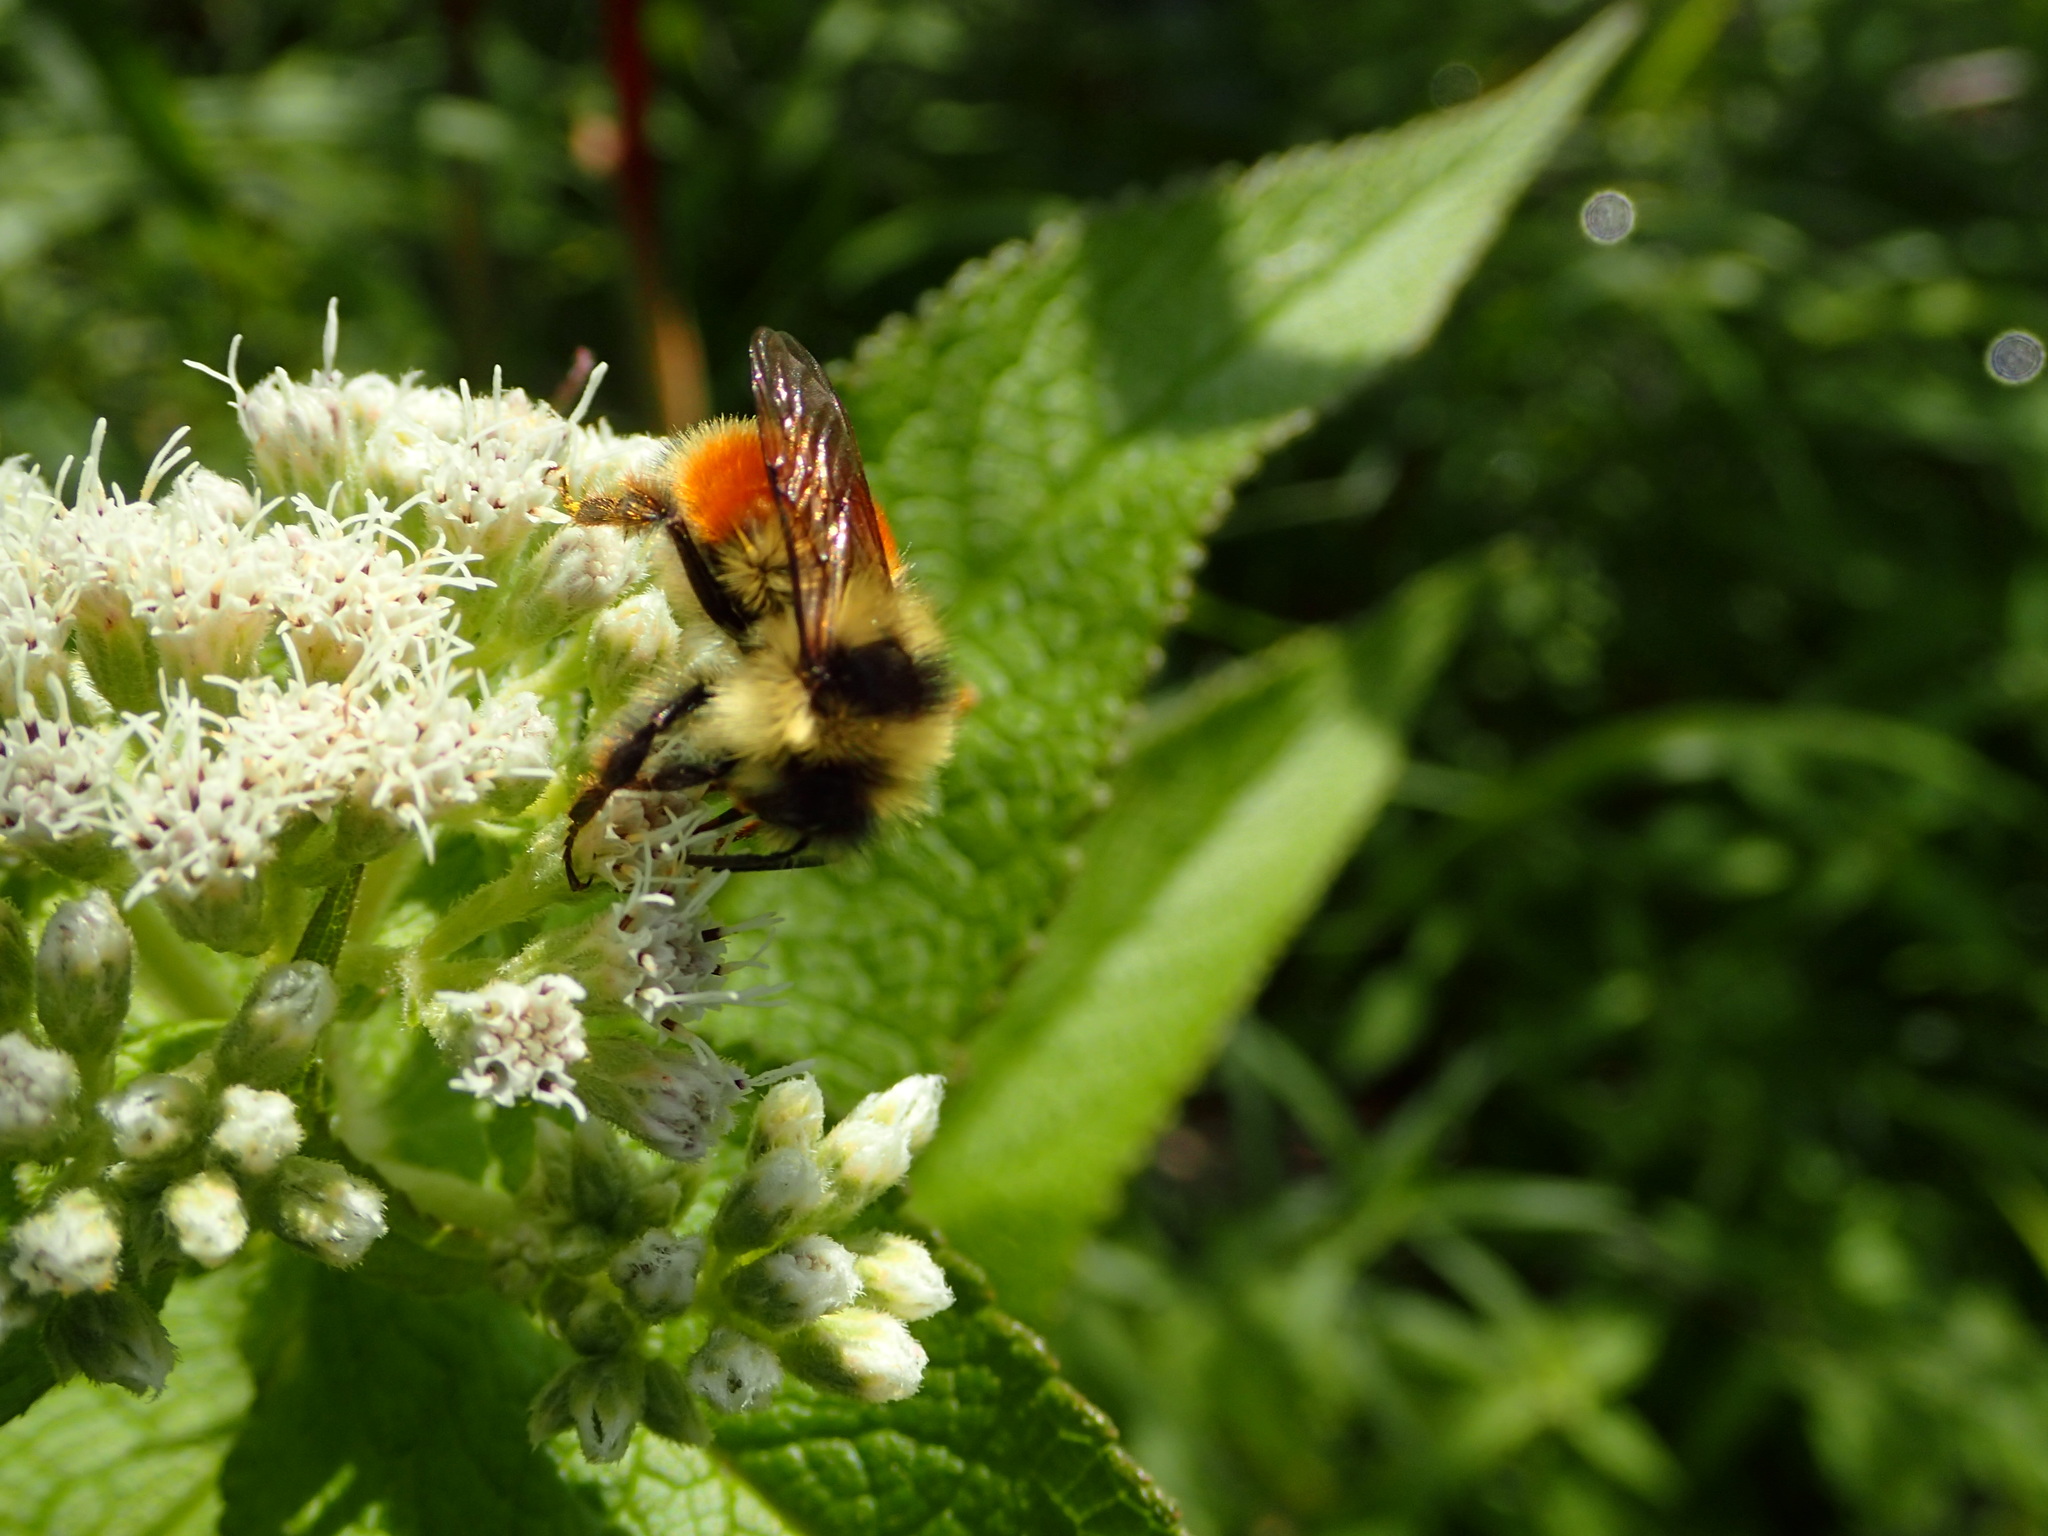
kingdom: Animalia
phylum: Arthropoda
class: Insecta
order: Hymenoptera
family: Apidae
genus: Bombus
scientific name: Bombus ternarius
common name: Tri-colored bumble bee
